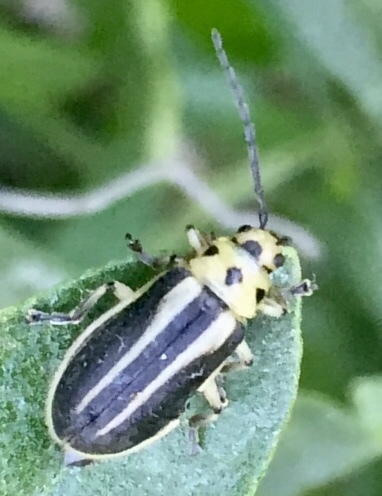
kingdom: Animalia
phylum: Arthropoda
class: Insecta
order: Coleoptera
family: Chrysomelidae
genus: Trirhabda
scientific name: Trirhabda bacharidis
